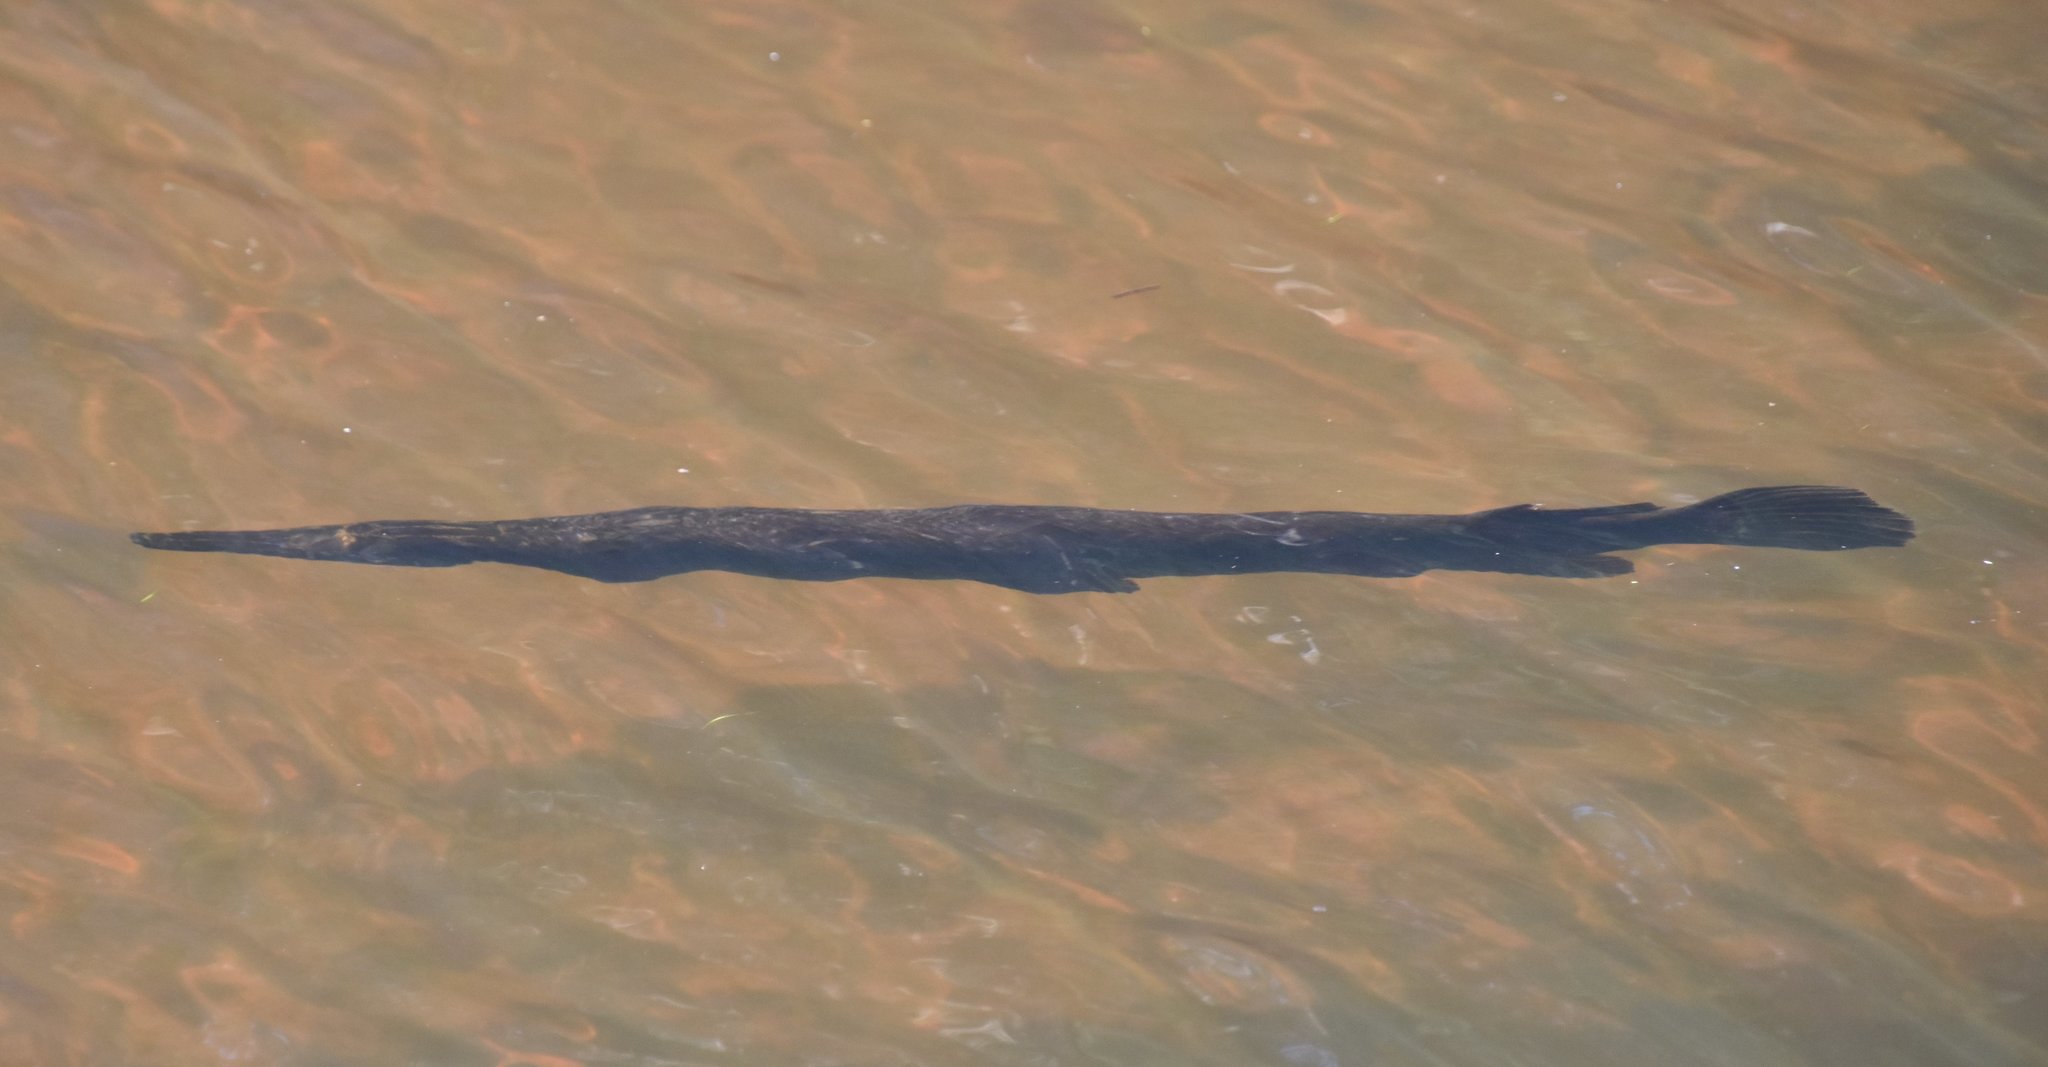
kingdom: Animalia
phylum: Chordata
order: Lepisosteiformes
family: Lepisosteidae
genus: Lepisosteus
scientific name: Lepisosteus platyrhincus
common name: Florida gar
